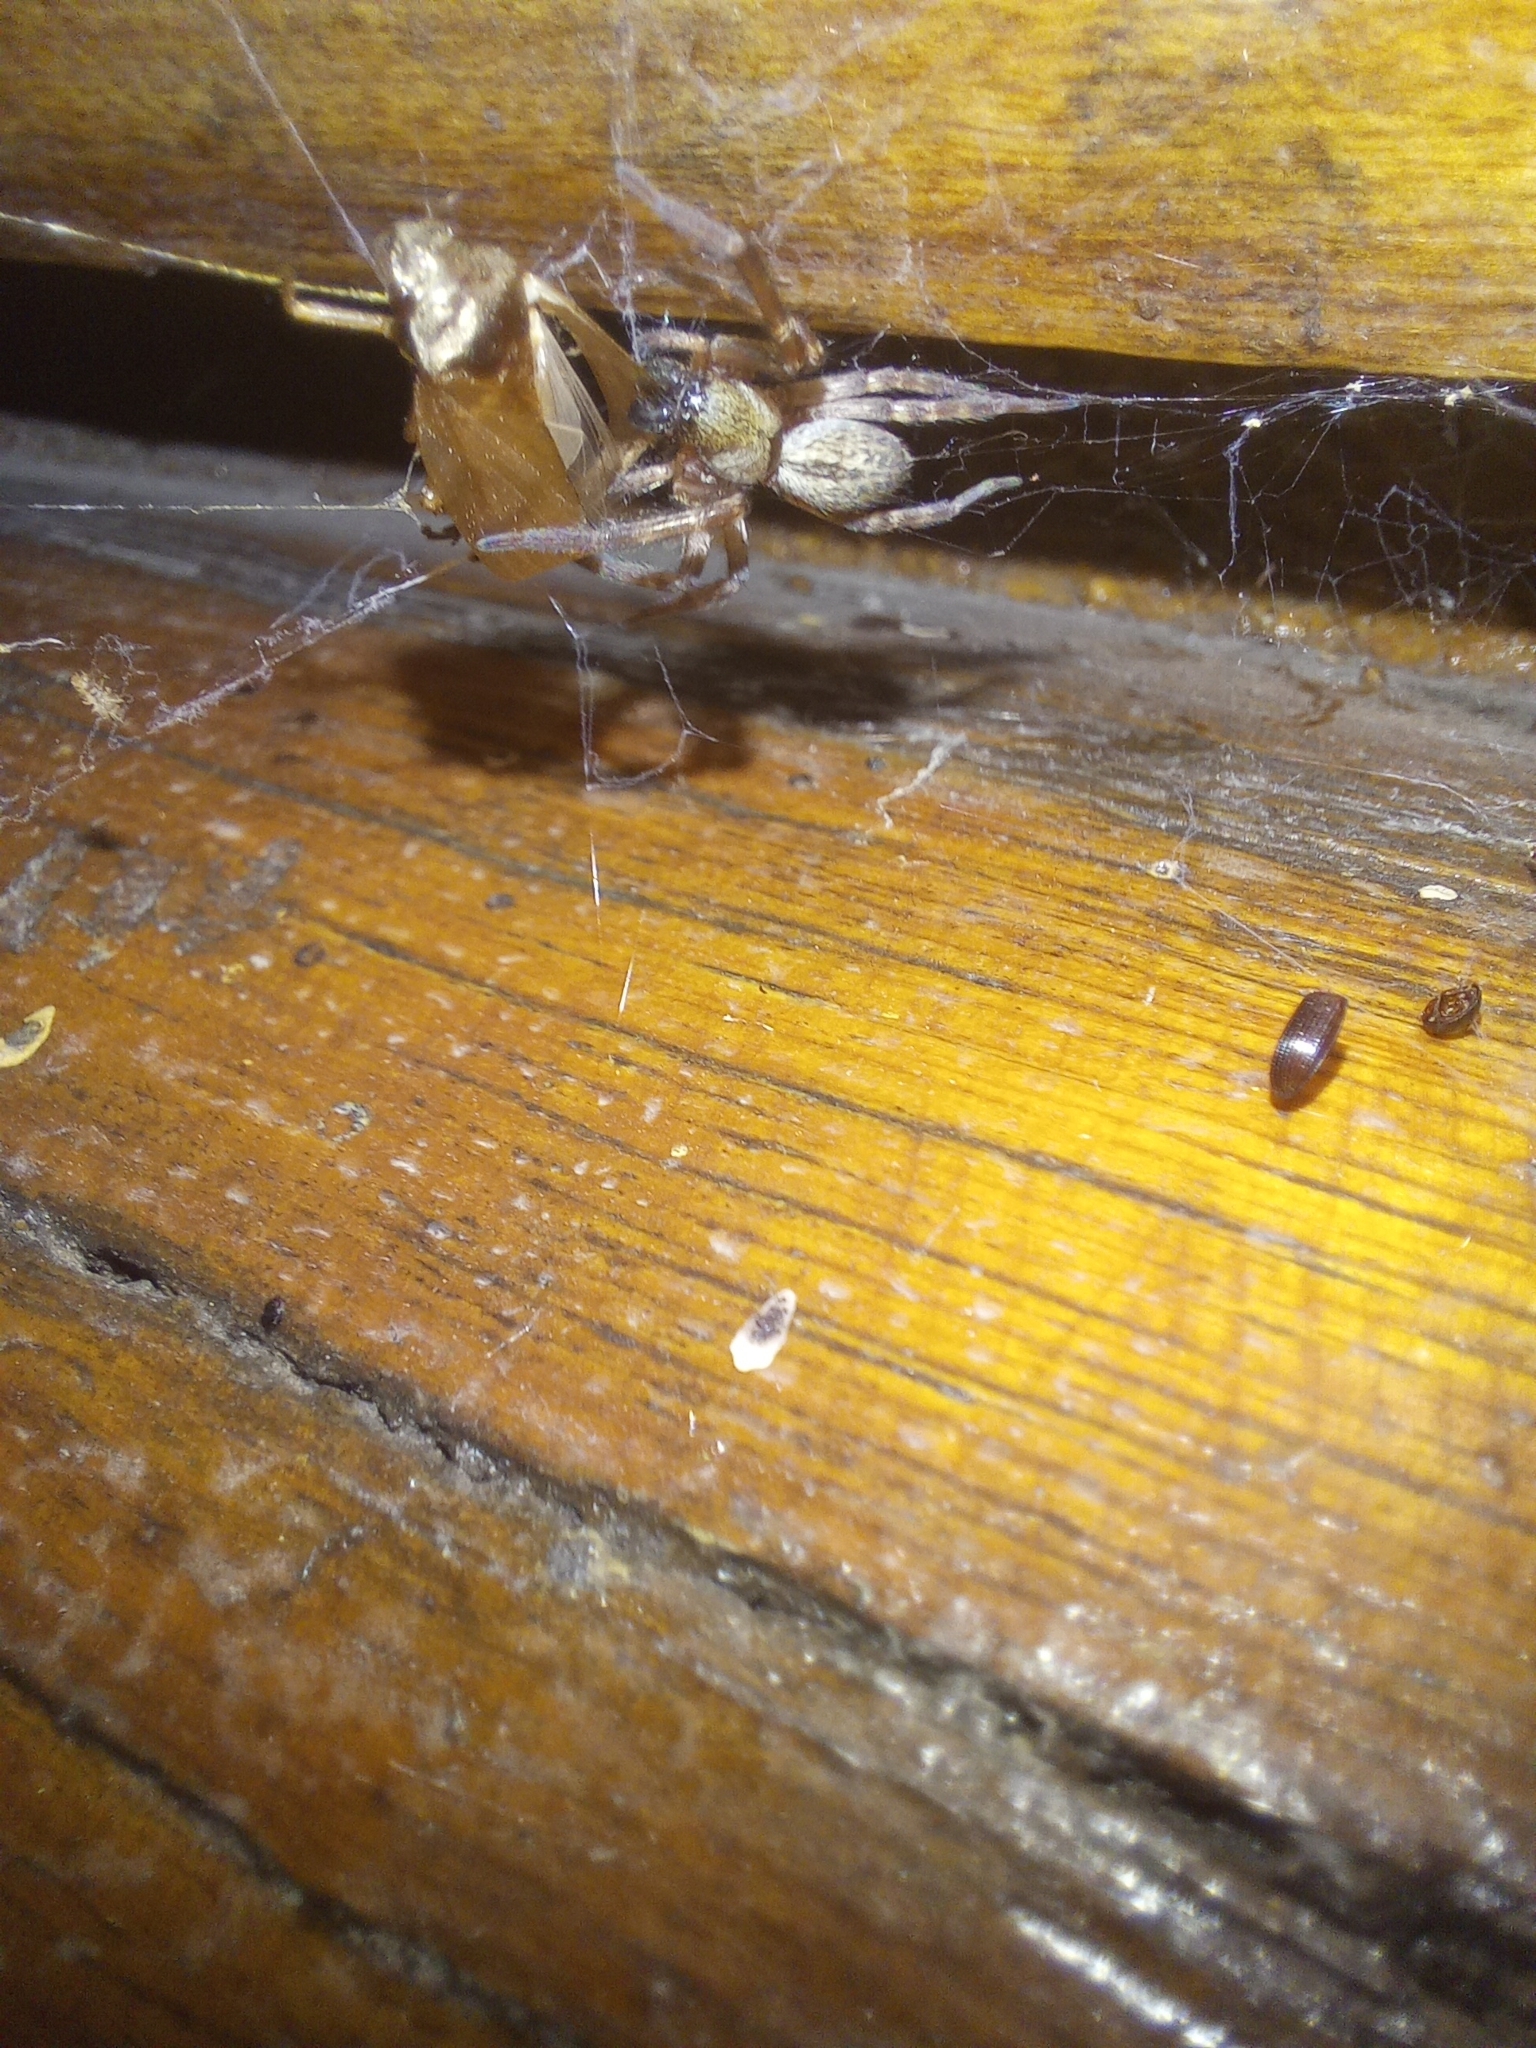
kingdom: Animalia
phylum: Arthropoda
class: Arachnida
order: Araneae
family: Desidae
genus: Badumna
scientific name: Badumna longinqua
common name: Gray house spider
